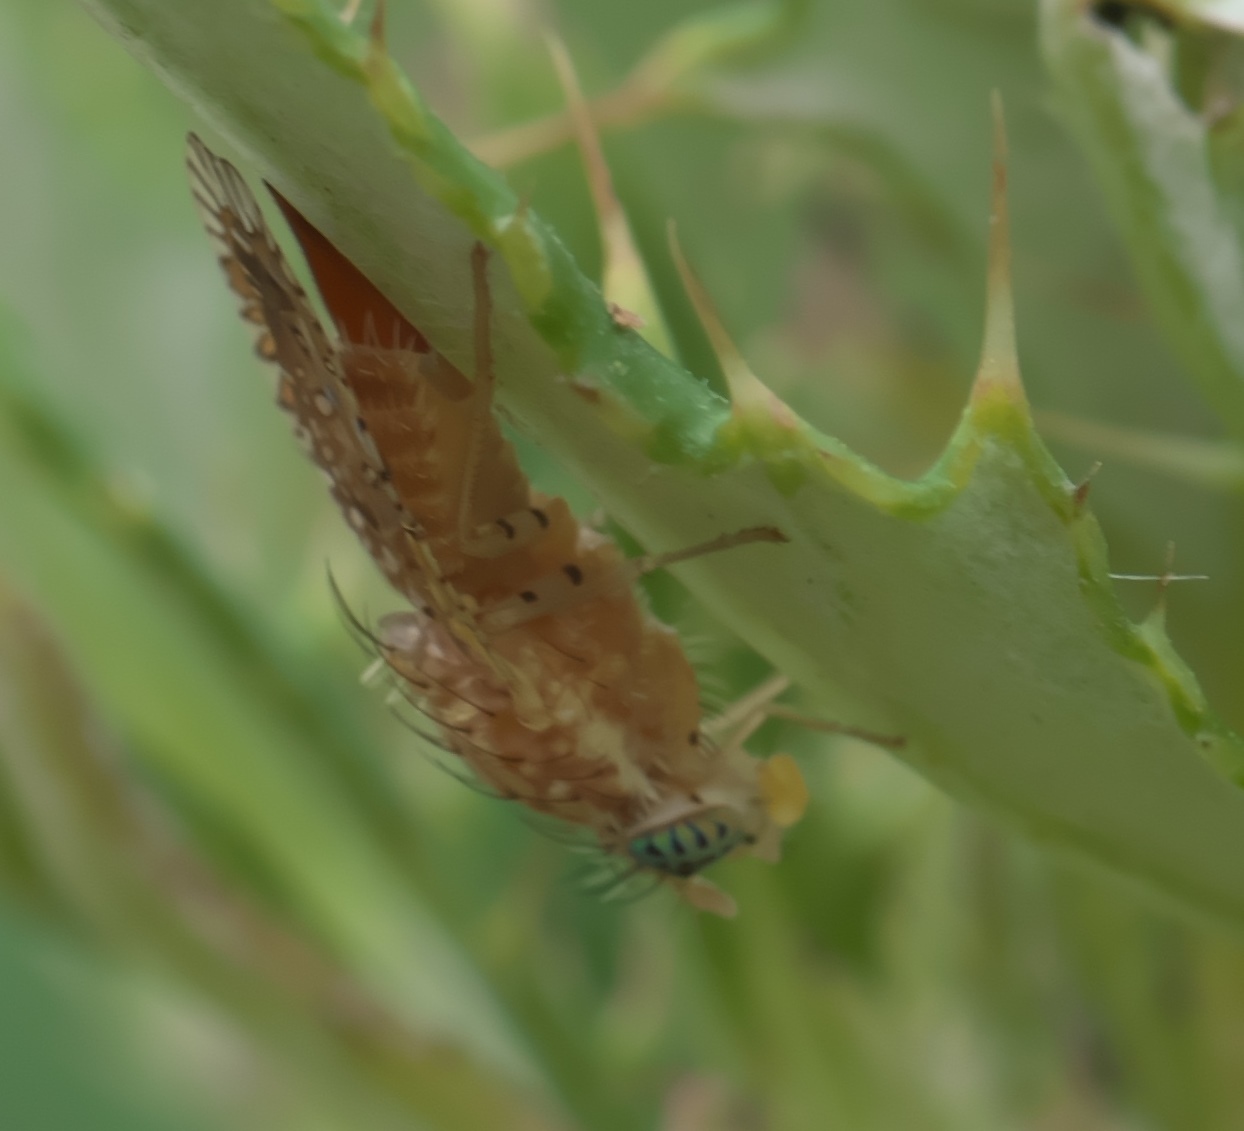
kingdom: Animalia
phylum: Arthropoda
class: Insecta
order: Diptera
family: Tephritidae
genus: Paracantha
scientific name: Paracantha culta
